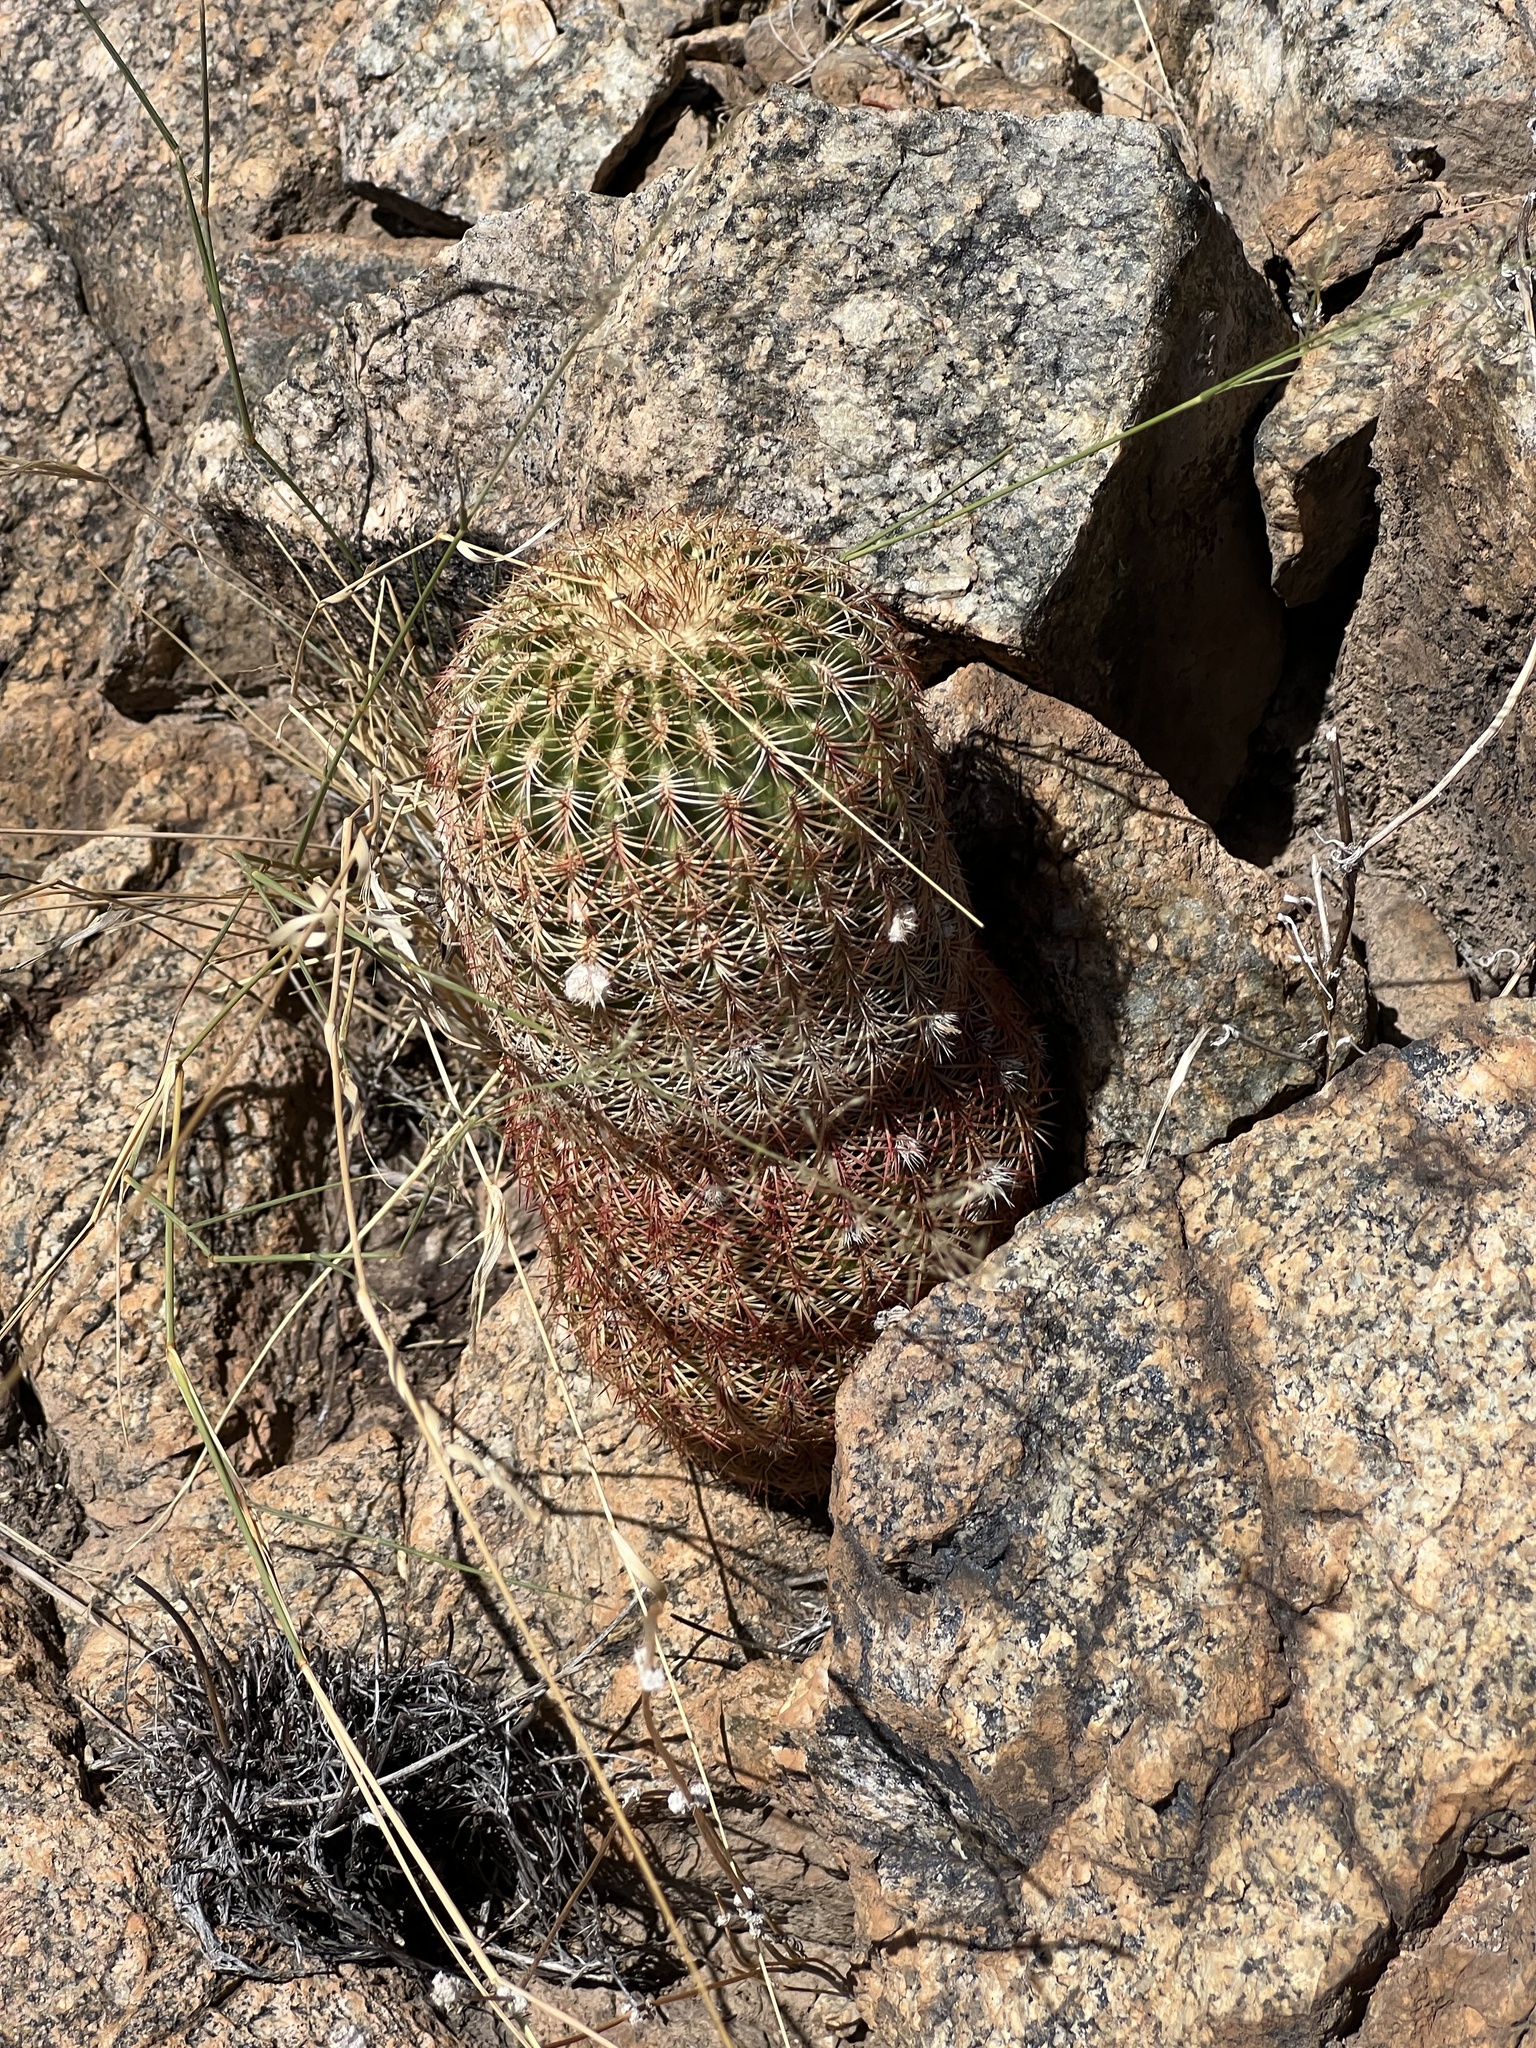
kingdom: Plantae
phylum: Tracheophyta
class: Magnoliopsida
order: Caryophyllales
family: Cactaceae
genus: Echinocereus
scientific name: Echinocereus rigidissimus
